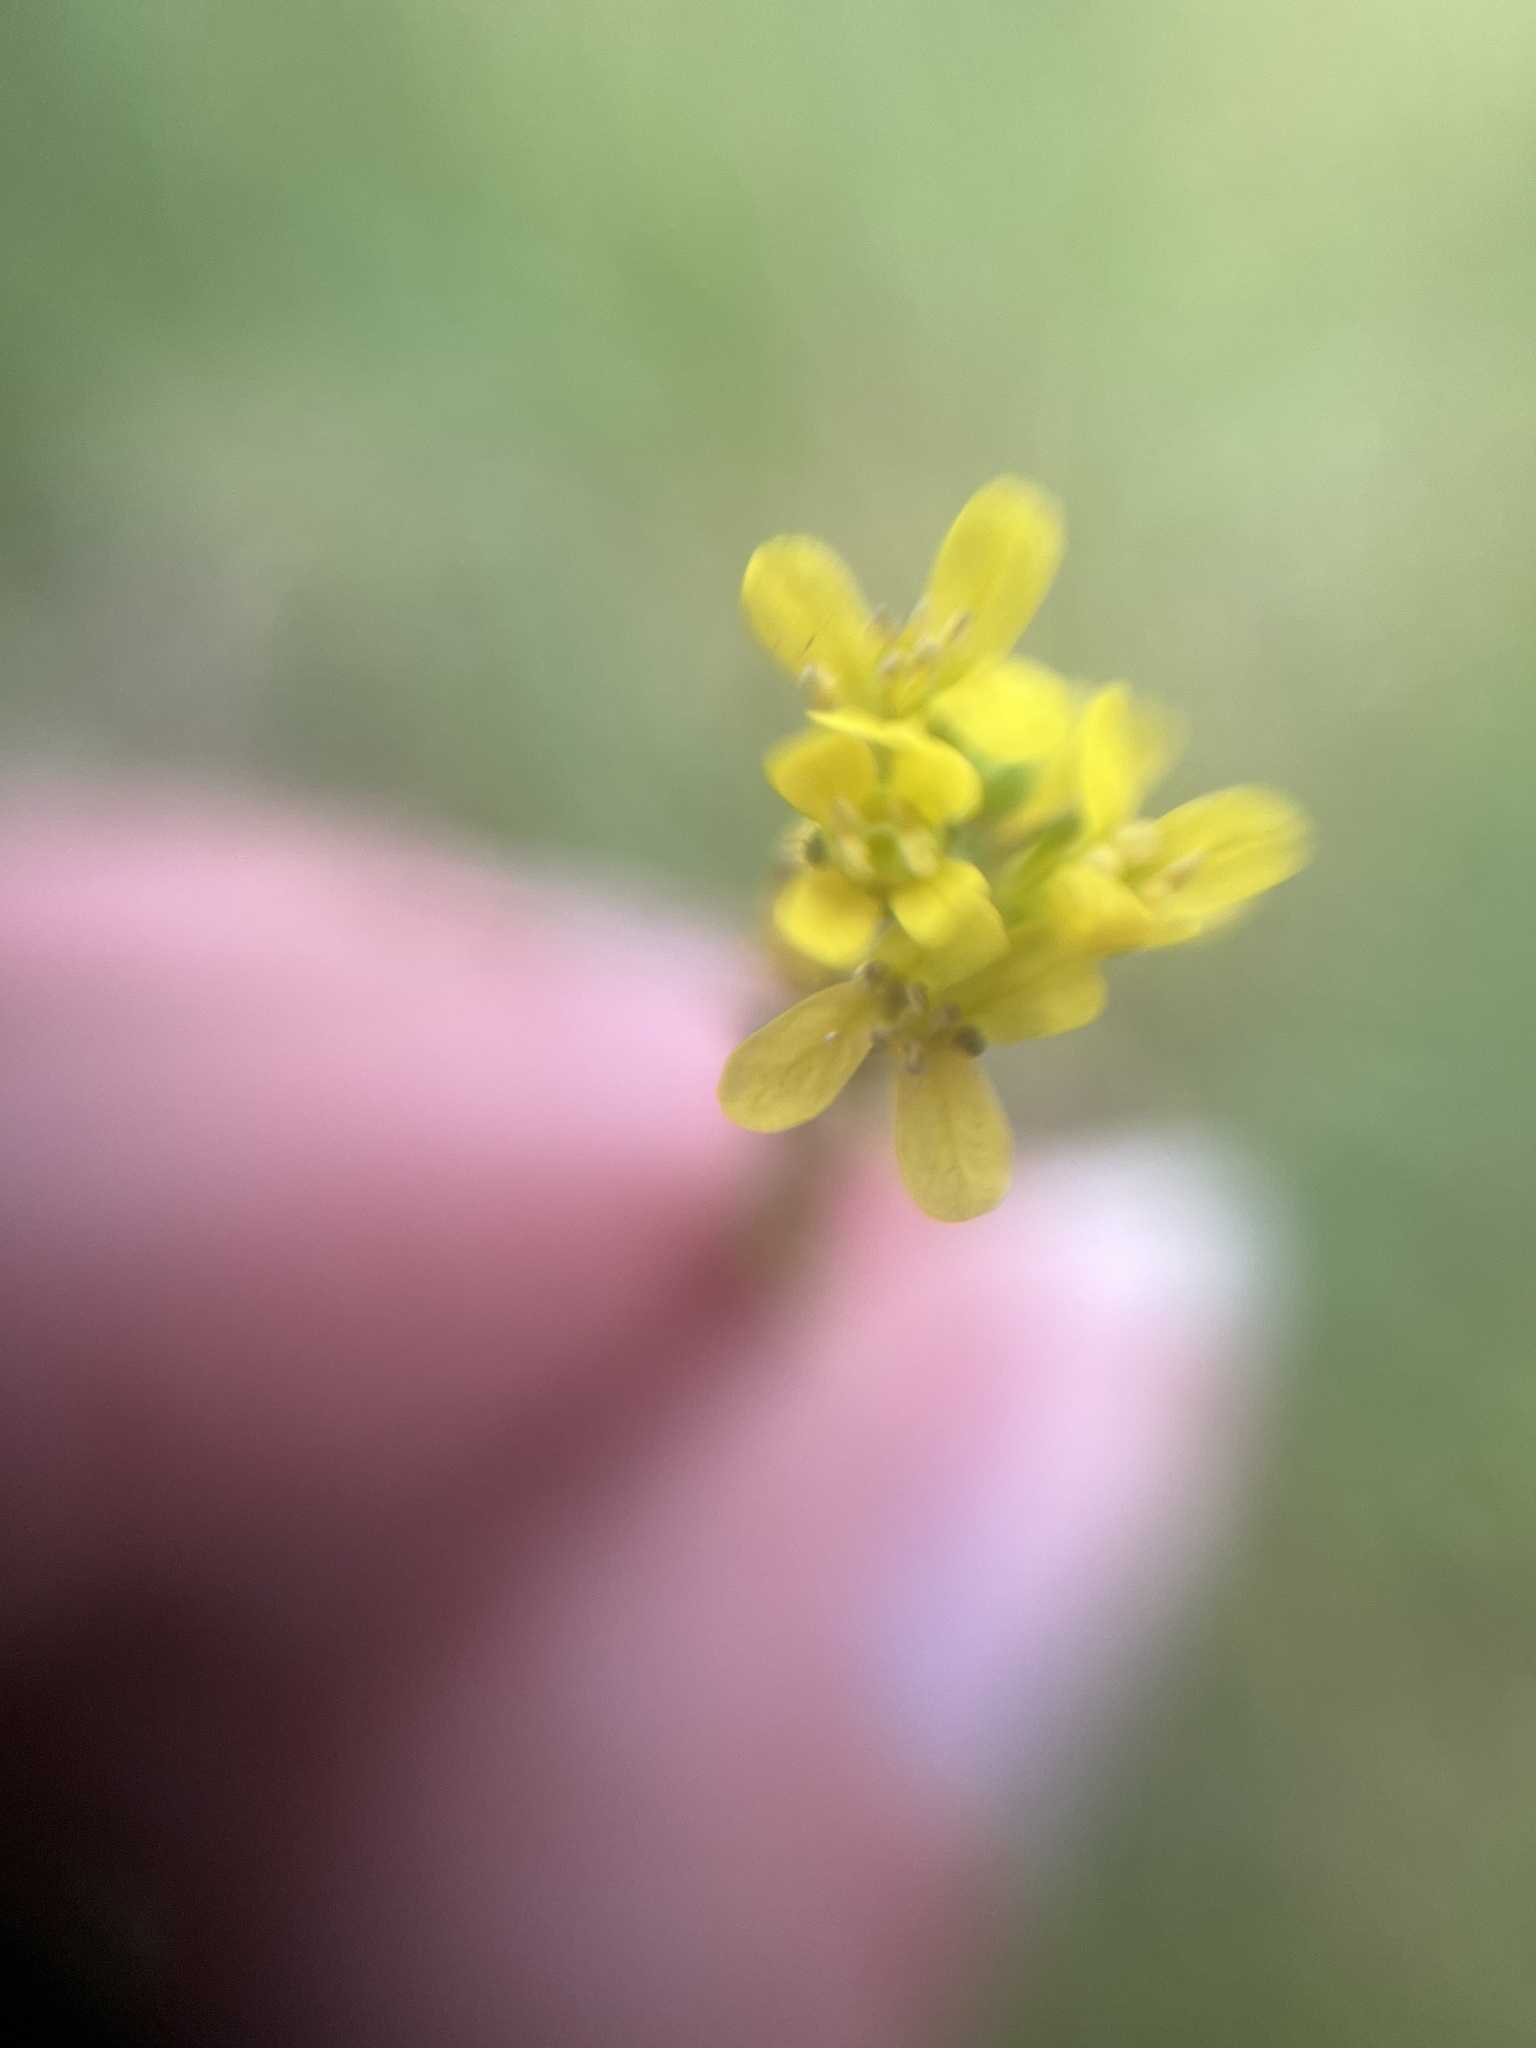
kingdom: Plantae
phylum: Tracheophyta
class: Magnoliopsida
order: Brassicales
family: Brassicaceae
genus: Sisymbrium
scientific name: Sisymbrium officinale
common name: Hedge mustard
